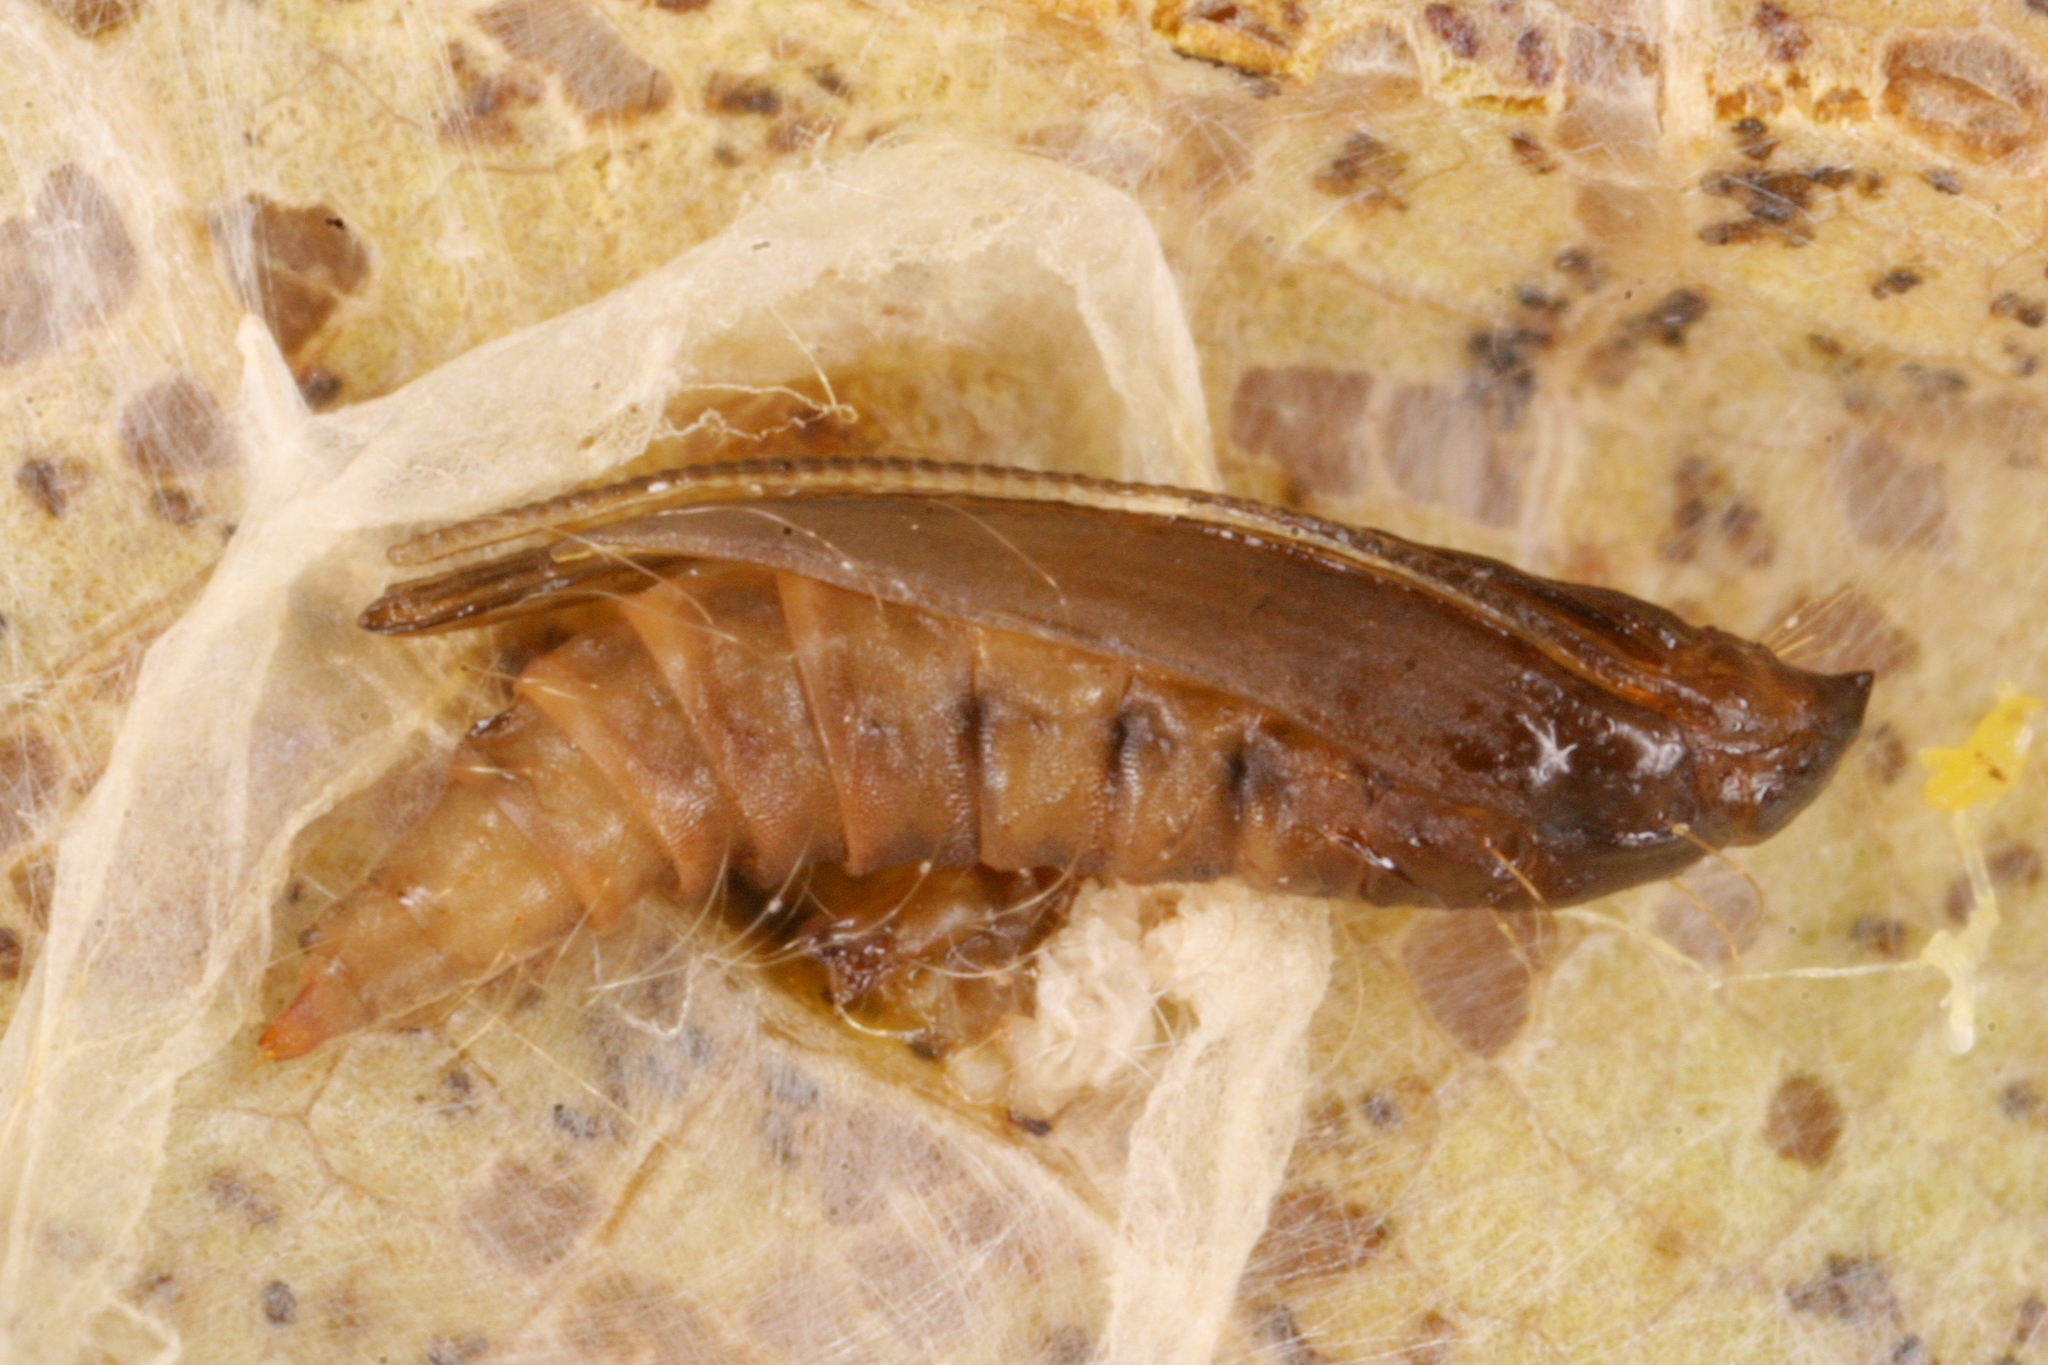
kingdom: Animalia
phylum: Arthropoda
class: Insecta
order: Lepidoptera
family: Gracillariidae
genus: Phyllonorycter
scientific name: Phyllonorycter platani
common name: London midget
